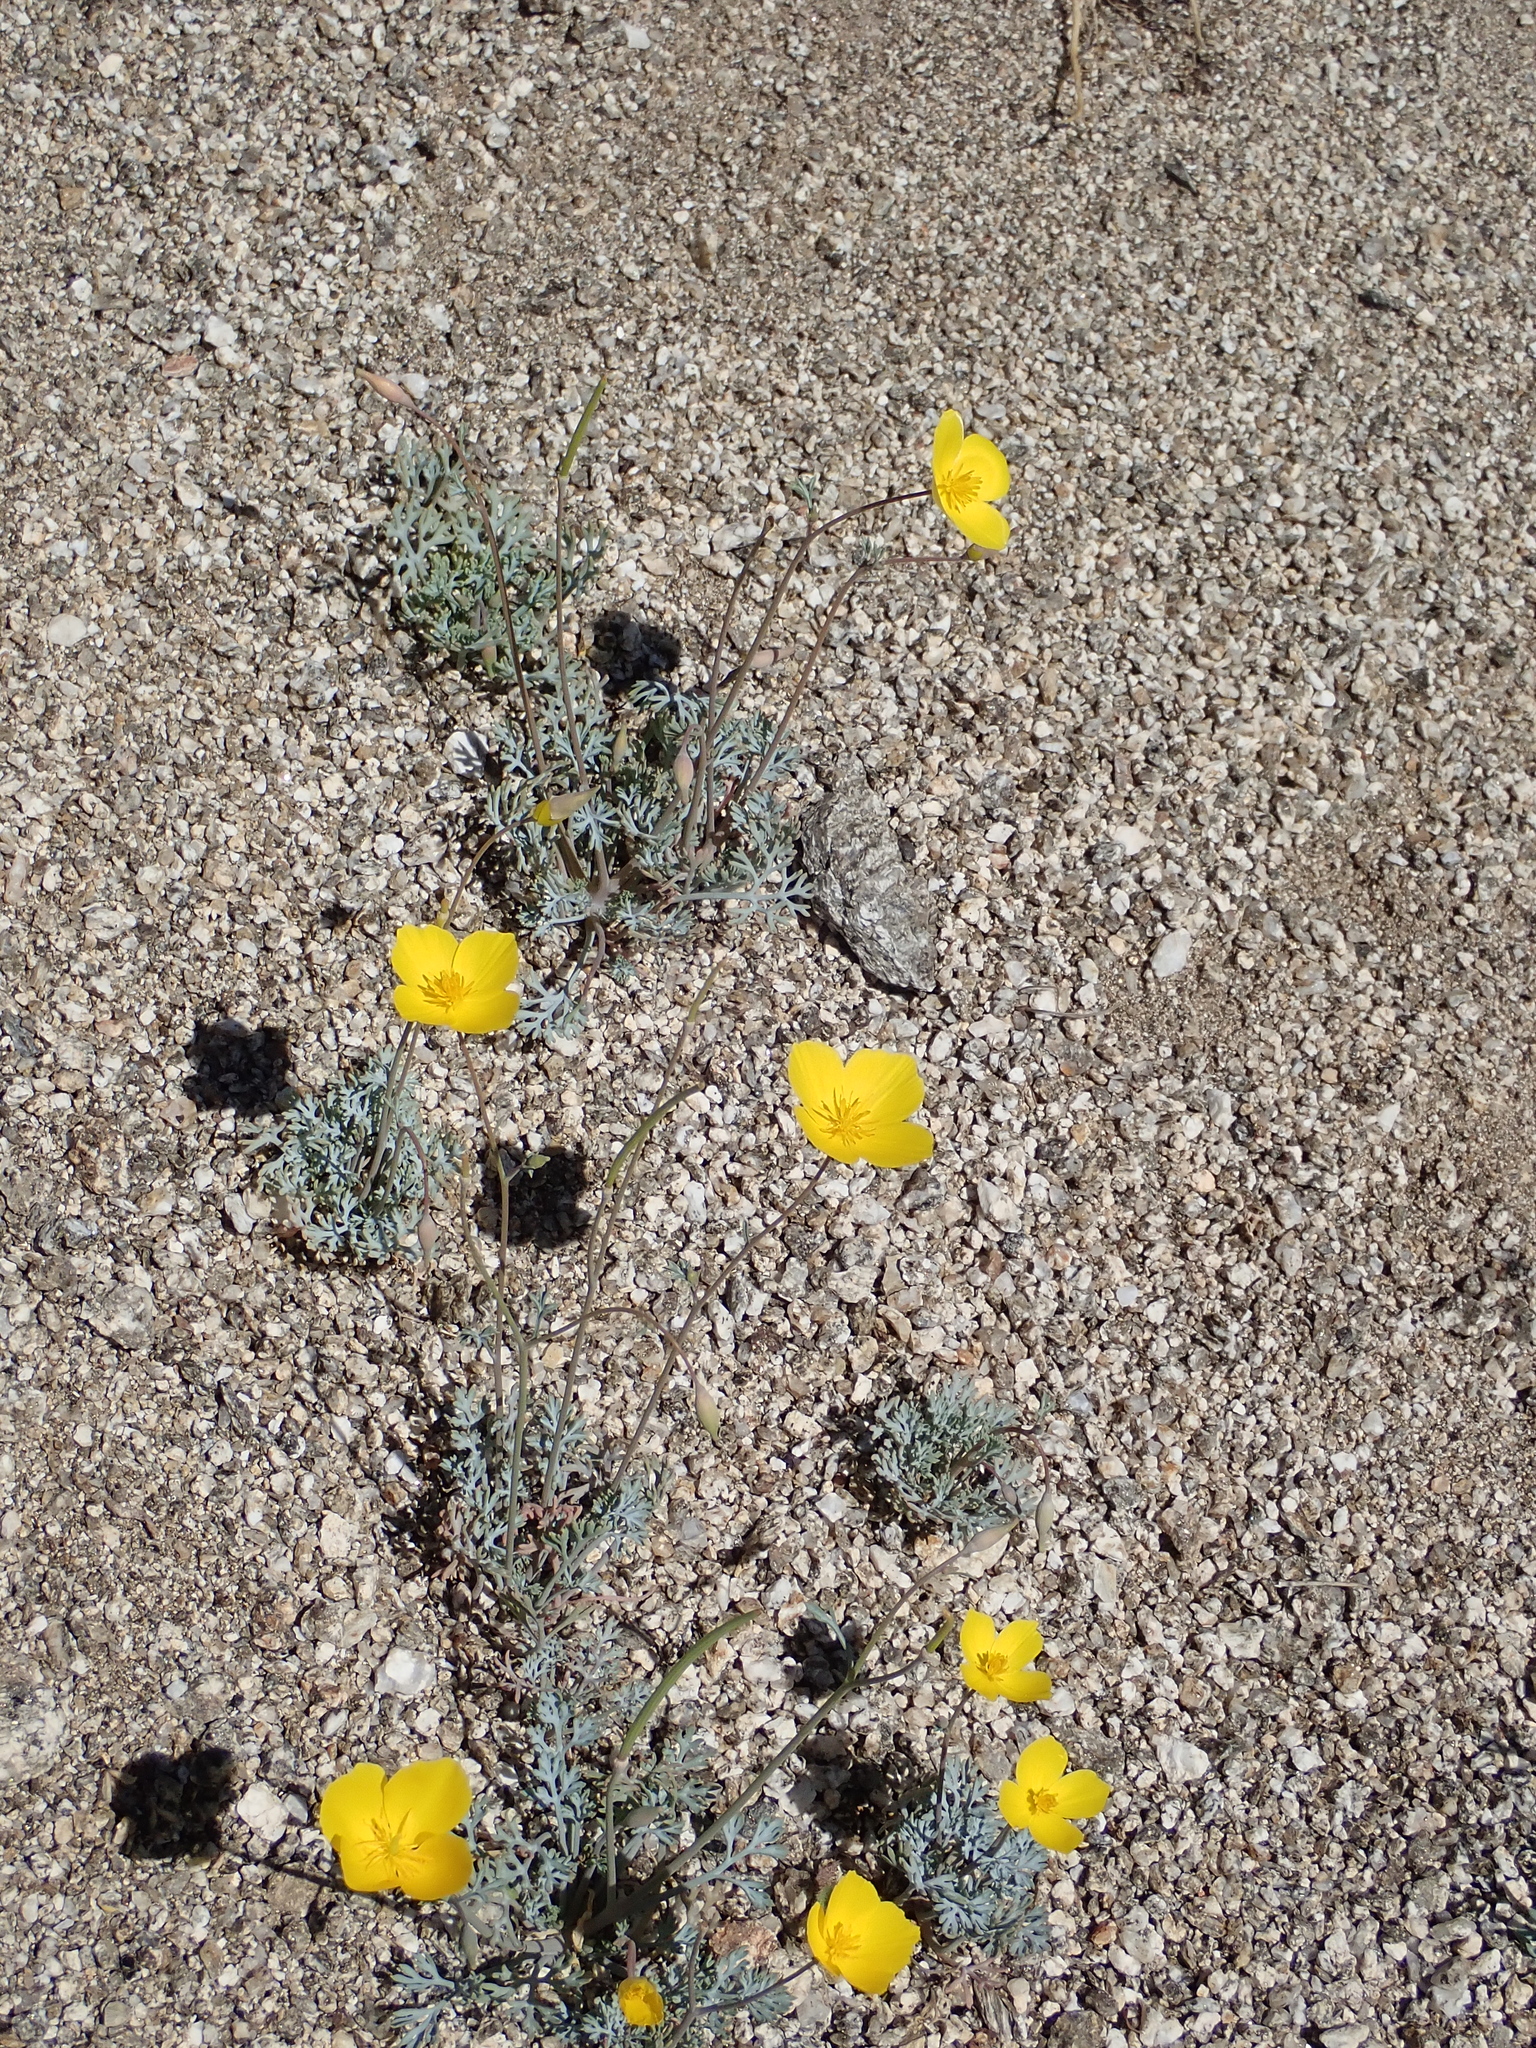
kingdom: Plantae
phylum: Tracheophyta
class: Magnoliopsida
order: Ranunculales
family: Papaveraceae
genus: Eschscholzia
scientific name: Eschscholzia parishii
